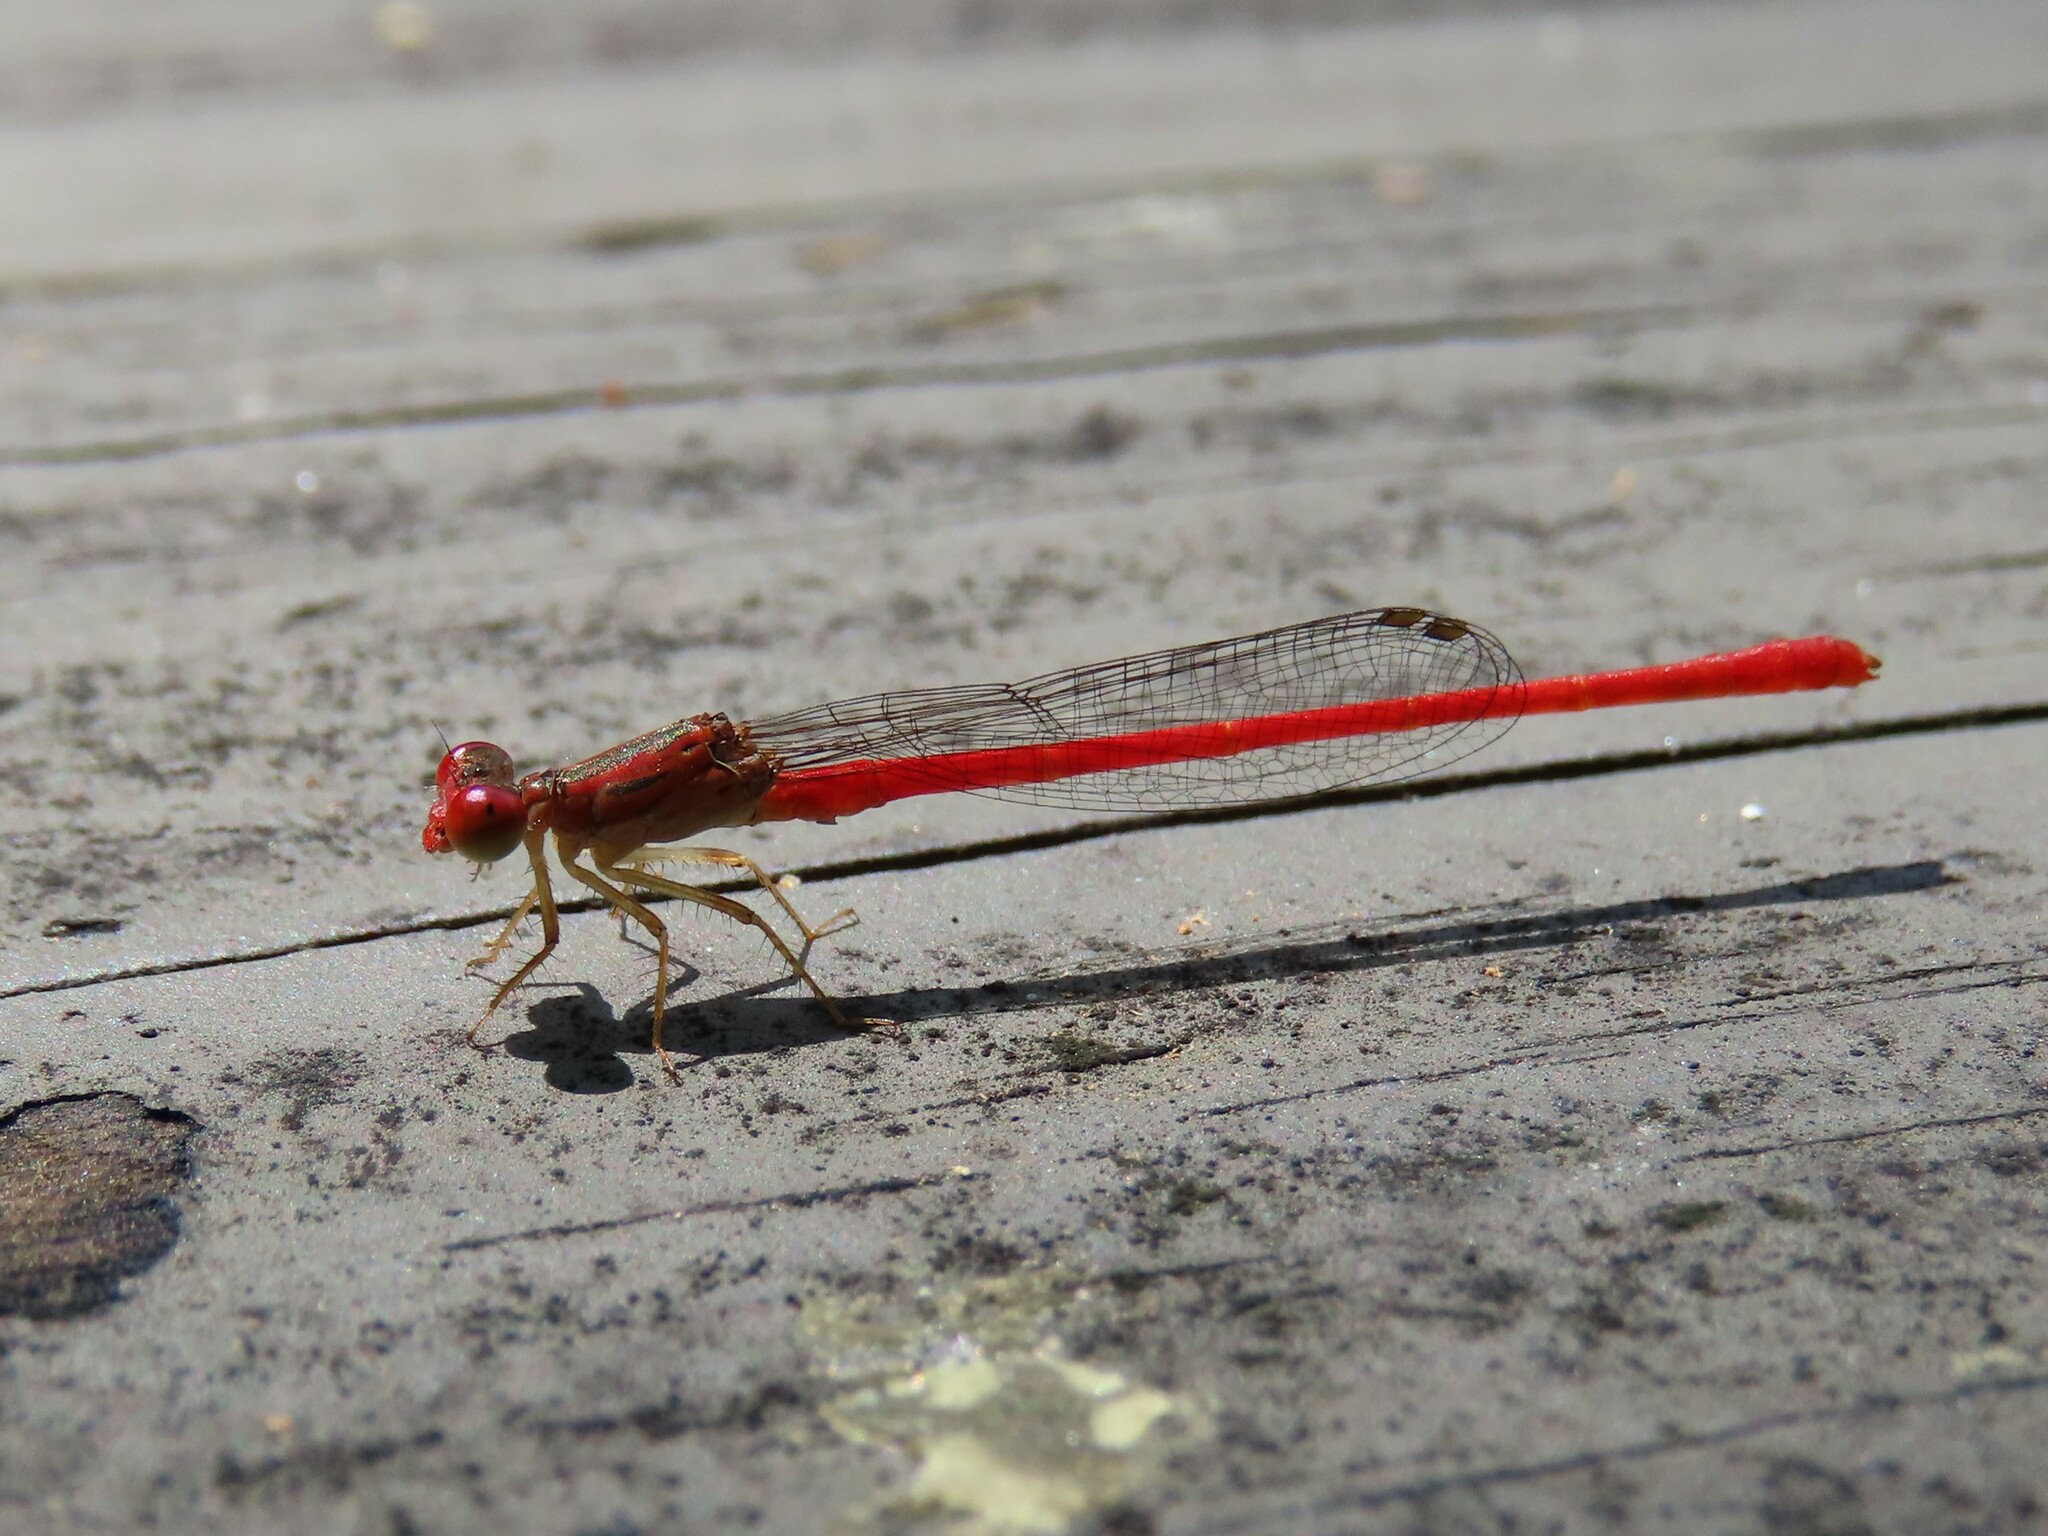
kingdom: Animalia
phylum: Arthropoda
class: Insecta
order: Odonata
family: Coenagrionidae
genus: Telebasis
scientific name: Telebasis byersi
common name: Duckweed firetail
